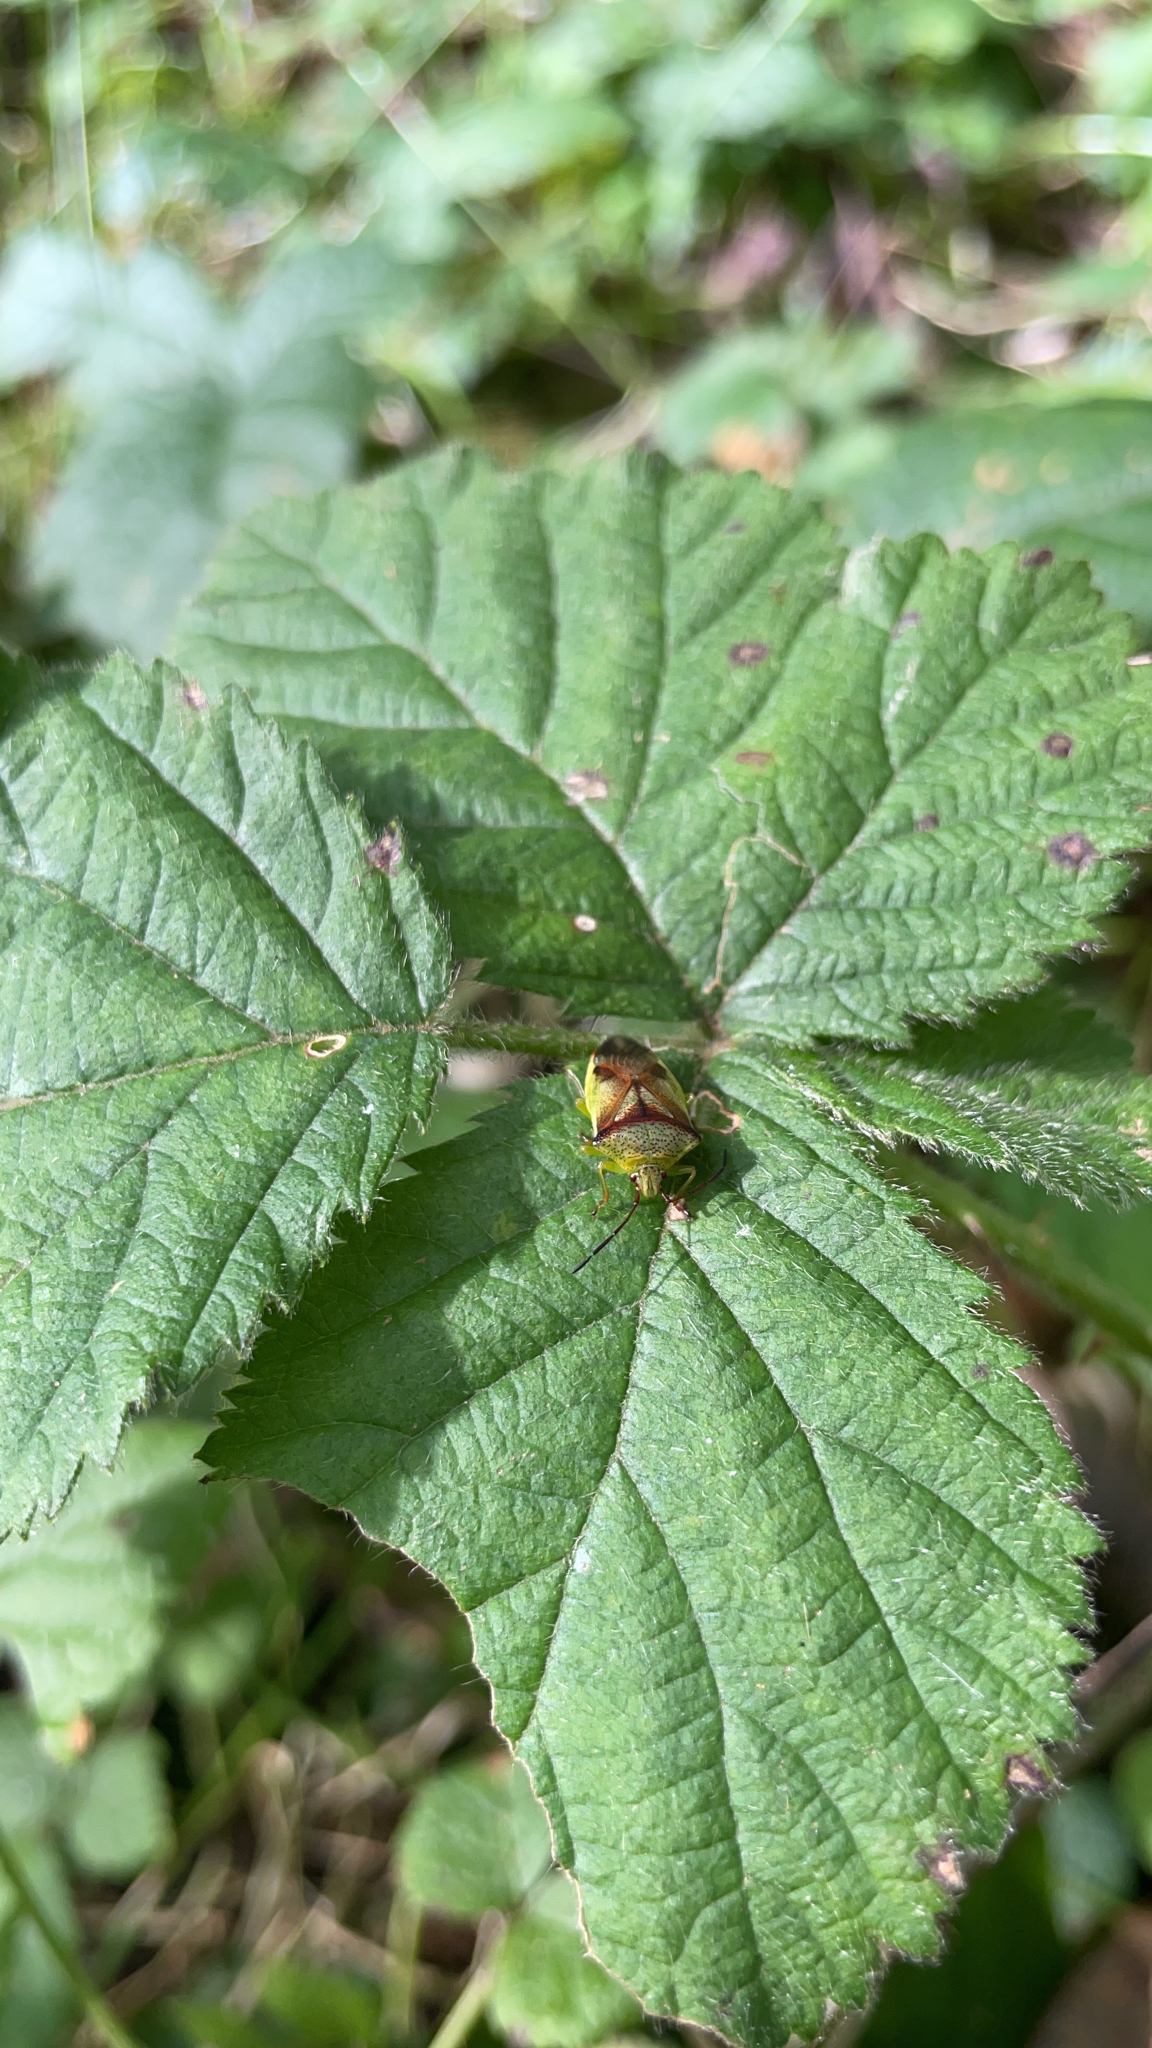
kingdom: Animalia
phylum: Arthropoda
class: Insecta
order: Hemiptera
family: Acanthosomatidae
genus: Elasmostethus
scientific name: Elasmostethus cruciatus
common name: Red-cross shield bug
